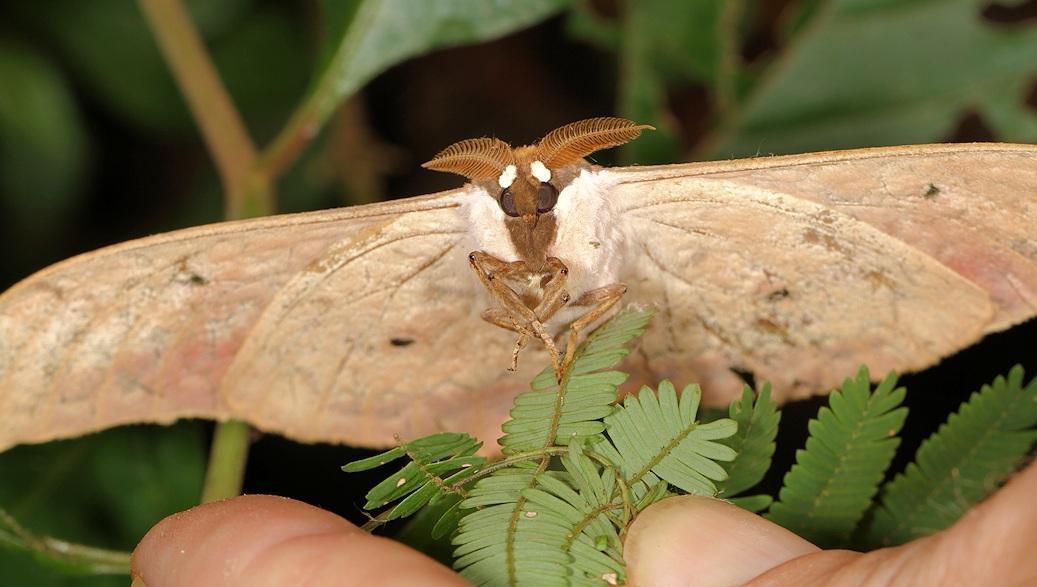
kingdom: Animalia
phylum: Arthropoda
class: Insecta
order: Lepidoptera
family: Saturniidae
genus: Aurivillius
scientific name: Aurivillius fusca
